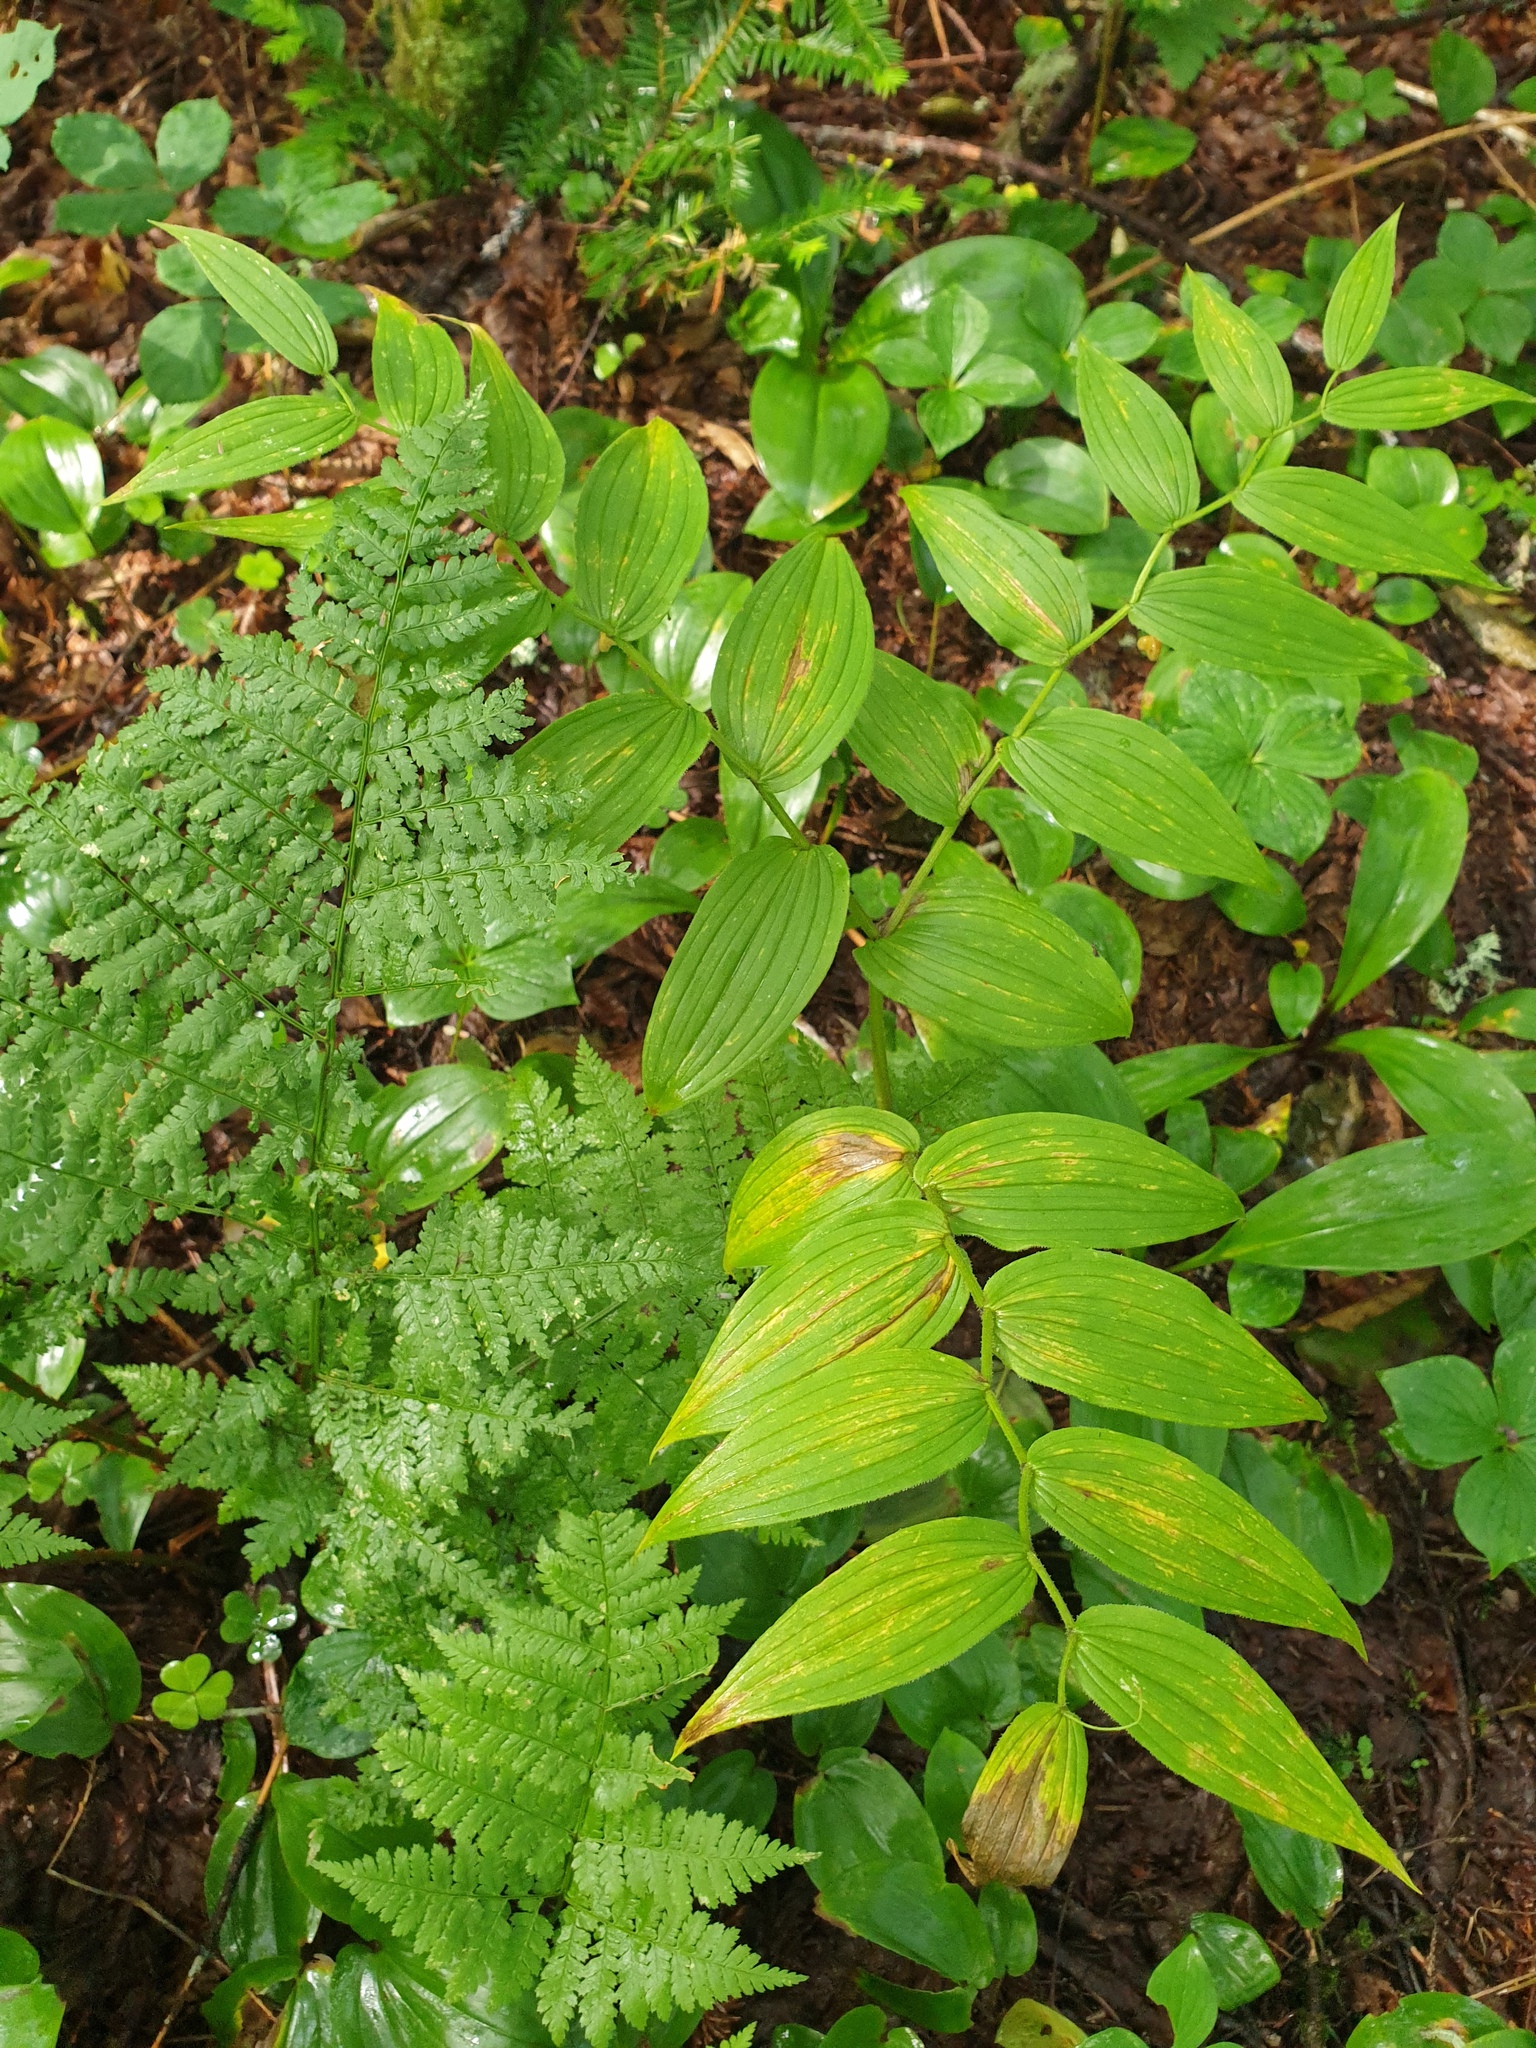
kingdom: Plantae
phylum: Tracheophyta
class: Liliopsida
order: Liliales
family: Liliaceae
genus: Streptopus
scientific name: Streptopus lanceolatus
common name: Rose mandarin
